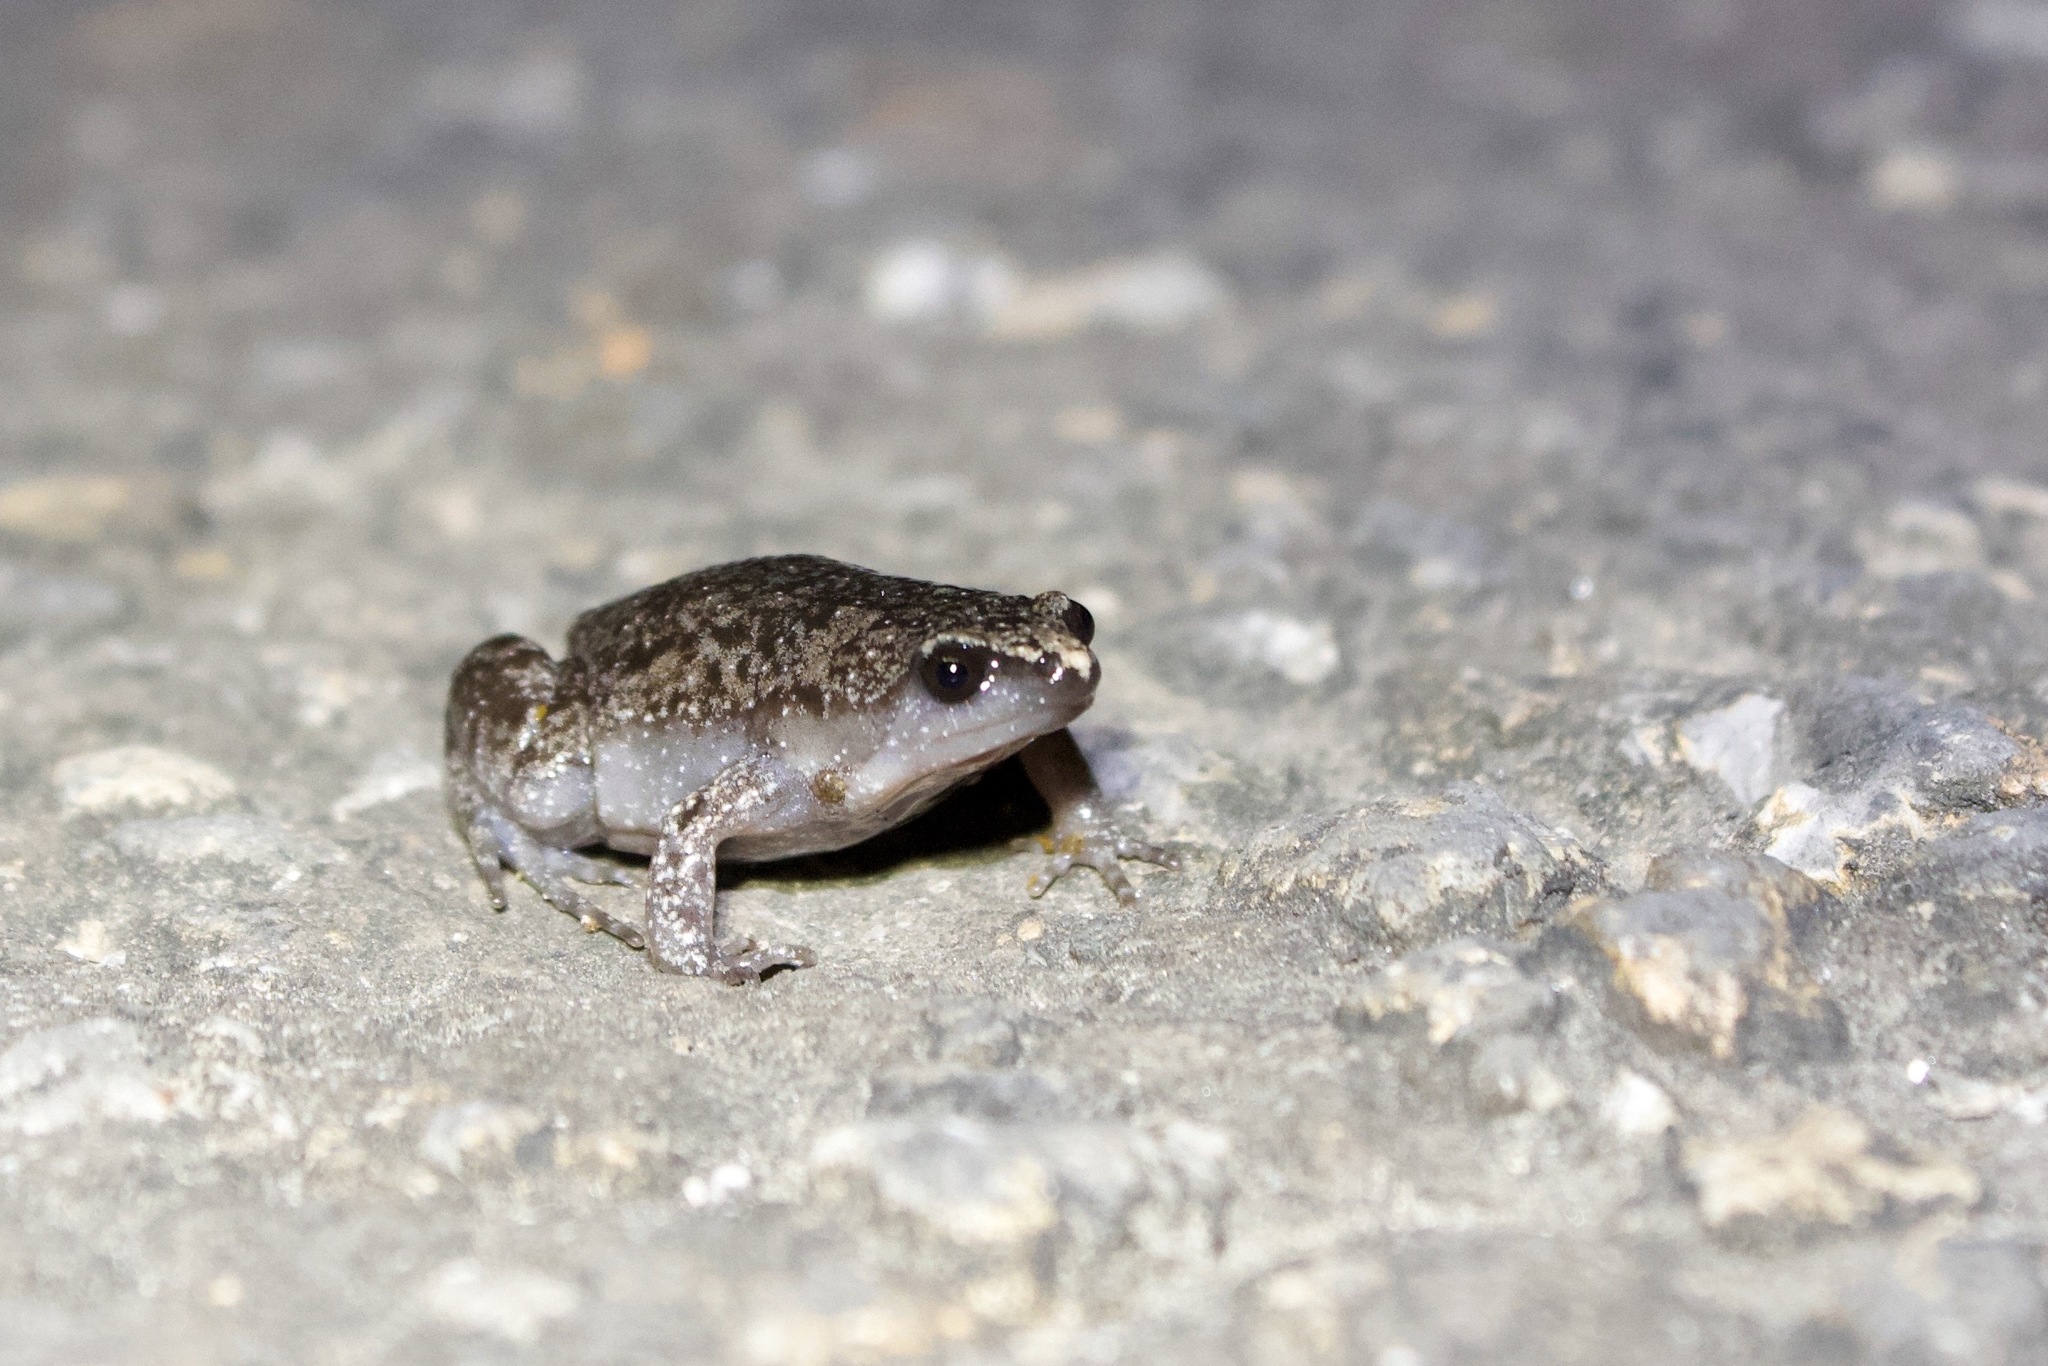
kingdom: Animalia
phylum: Chordata
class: Amphibia
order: Anura
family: Microhylidae
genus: Gastrophryne
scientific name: Gastrophryne carolinensis
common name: Eastern narrowmouth toad
